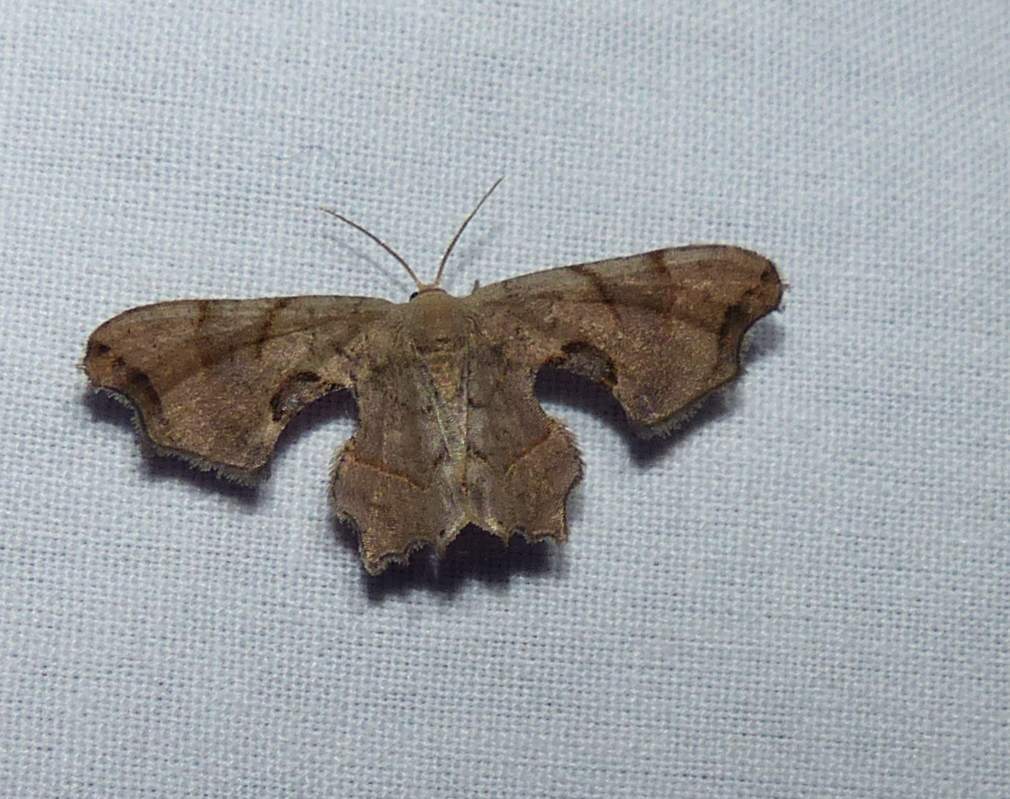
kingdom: Animalia
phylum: Arthropoda
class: Insecta
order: Lepidoptera
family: Uraniidae
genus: Epiplema
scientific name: Epiplema Calledapteryx dryopterata
